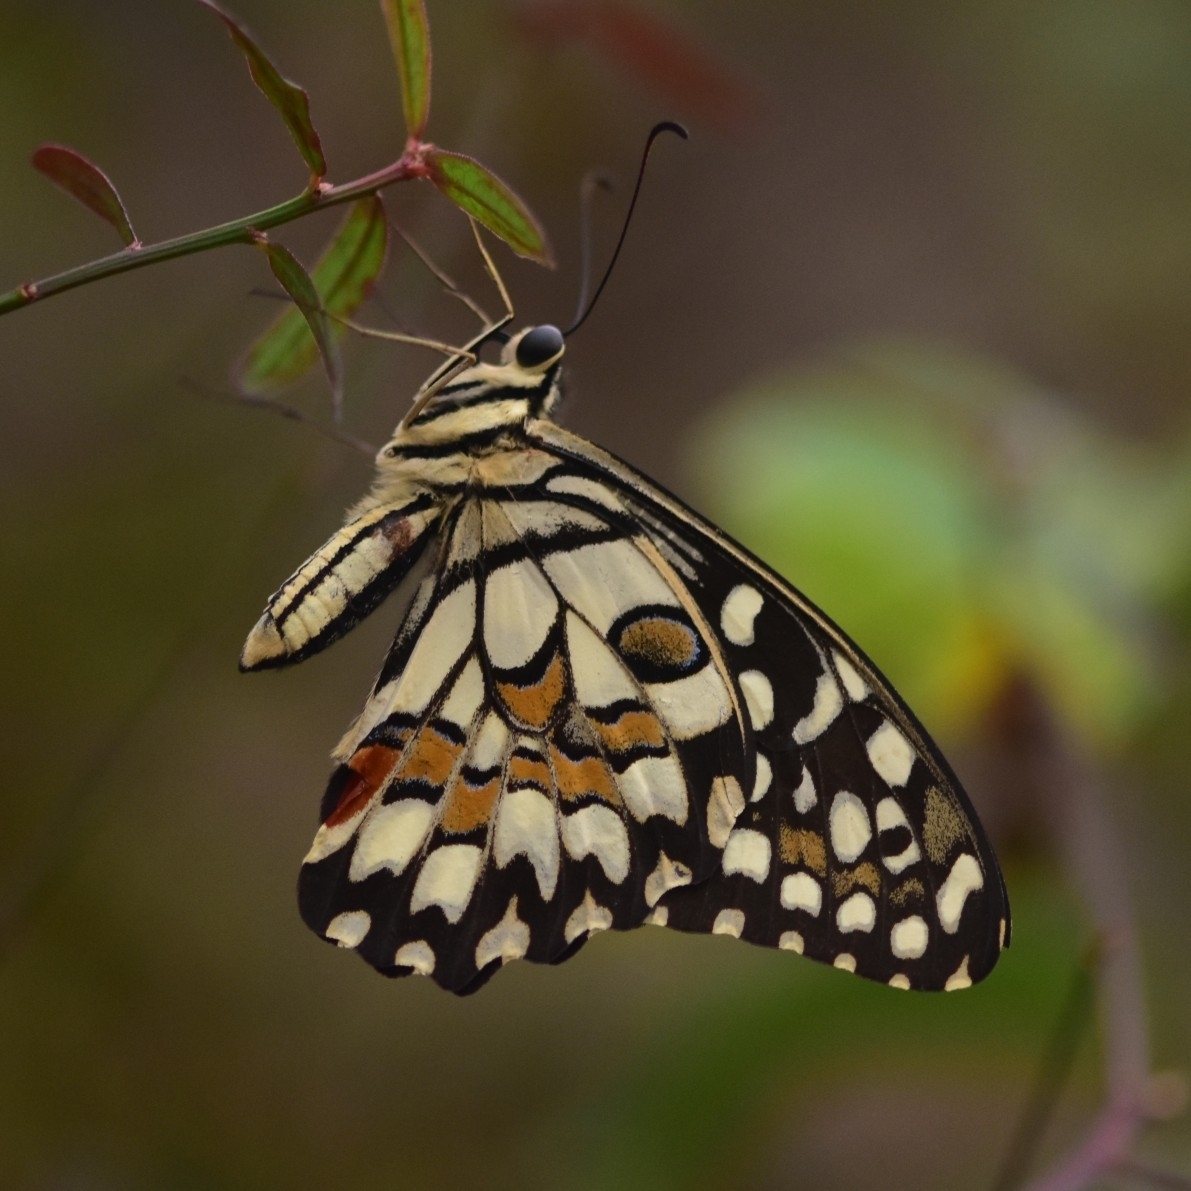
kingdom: Animalia
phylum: Arthropoda
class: Insecta
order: Lepidoptera
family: Papilionidae
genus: Papilio
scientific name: Papilio demoleus
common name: Lime butterfly
